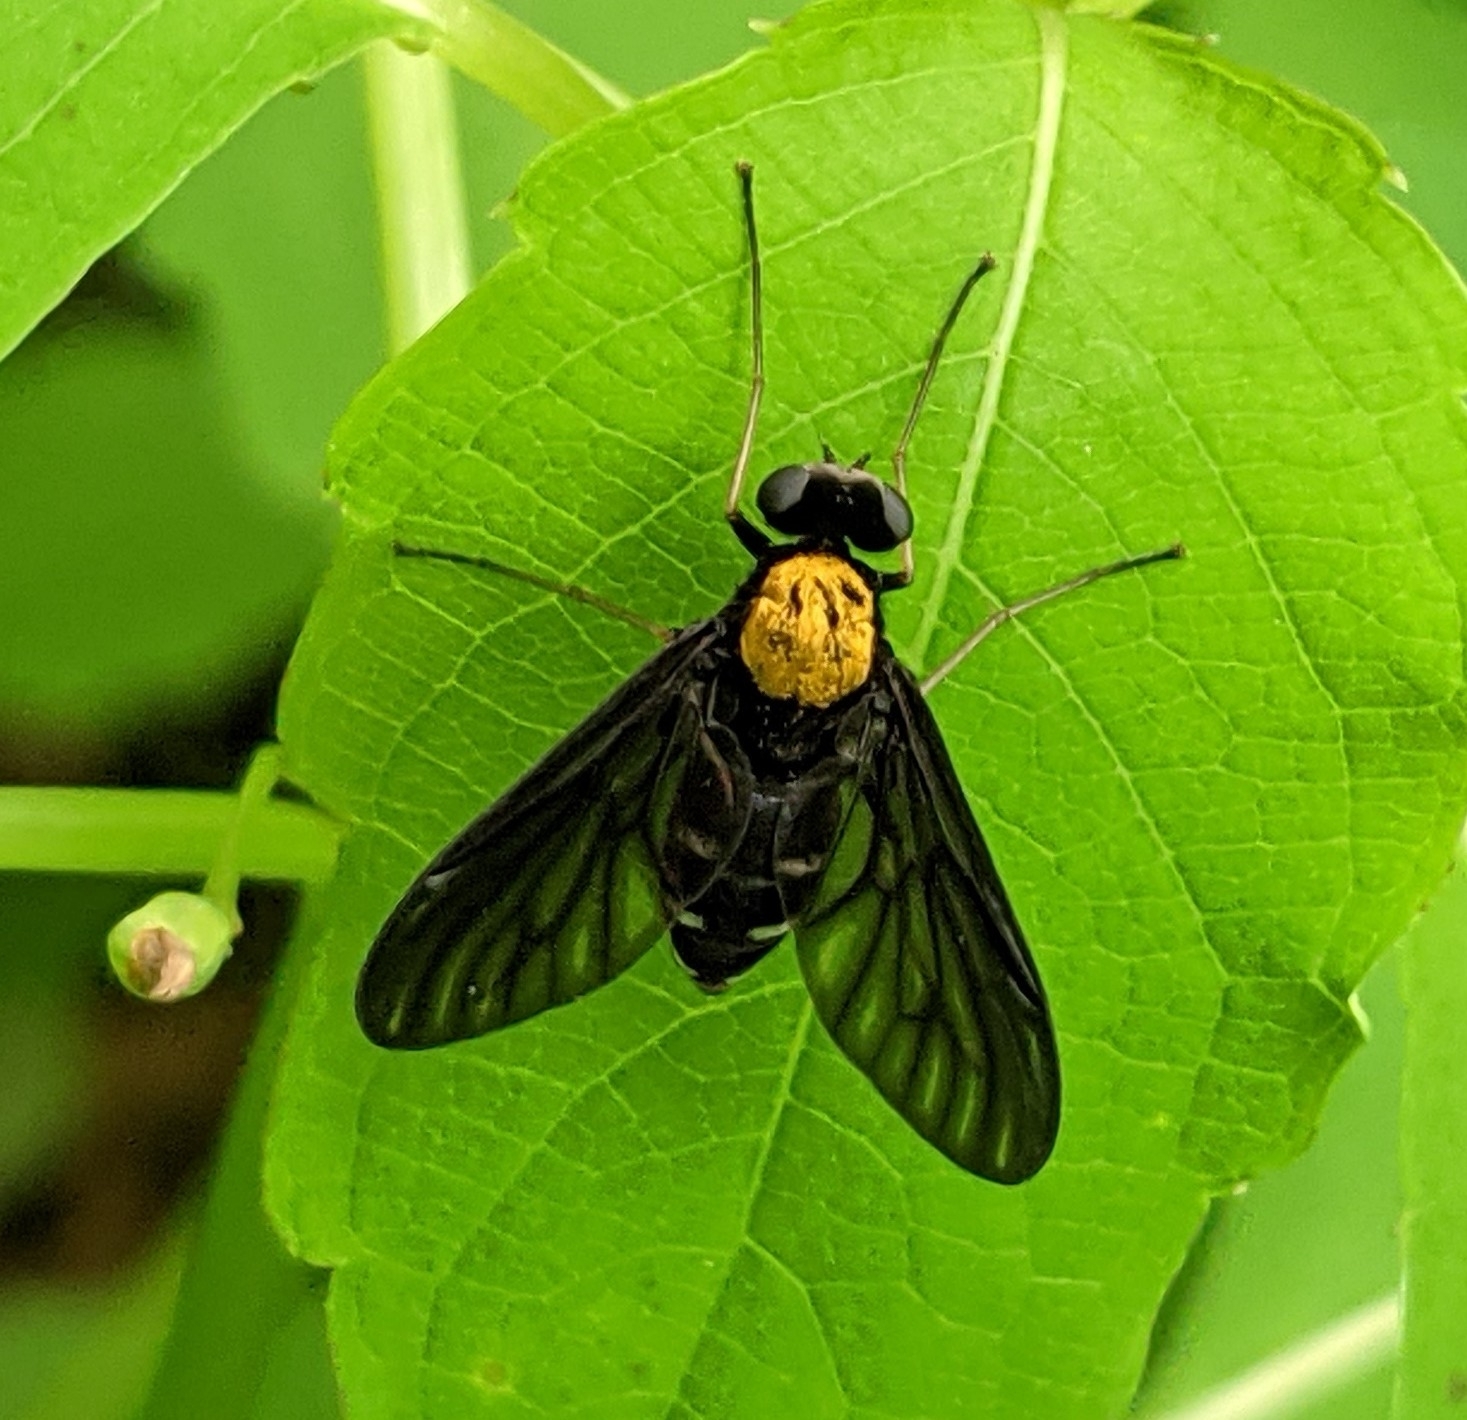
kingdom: Animalia
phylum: Arthropoda
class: Insecta
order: Diptera
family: Rhagionidae
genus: Chrysopilus
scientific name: Chrysopilus thoracicus
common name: Golden-backed snipe fly
